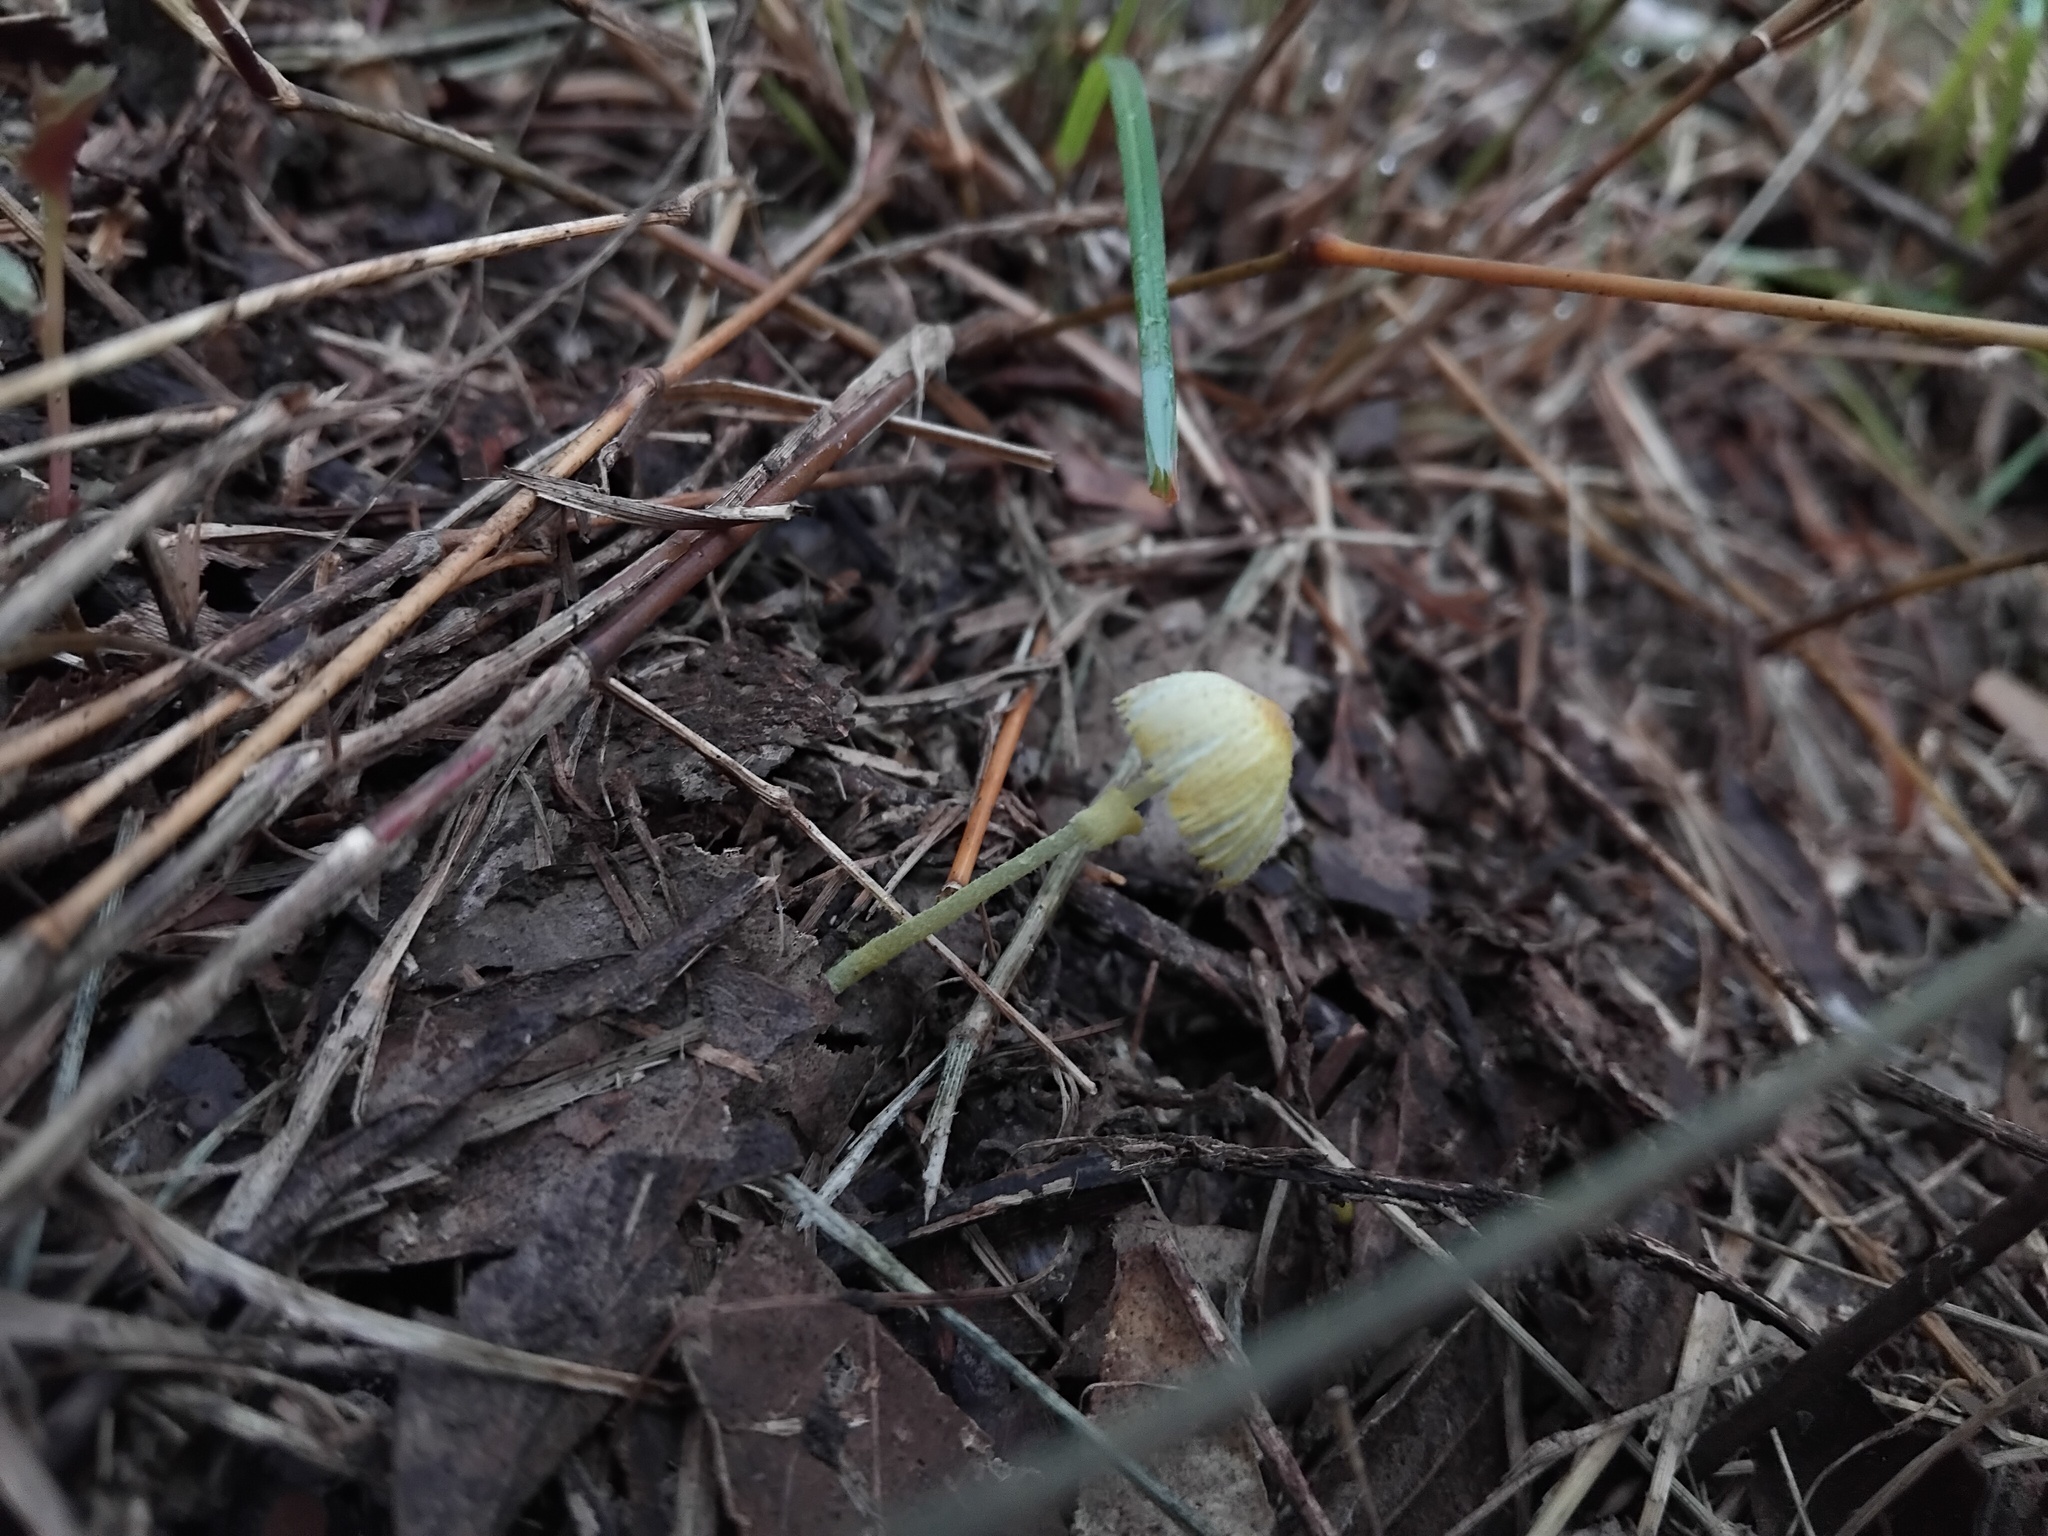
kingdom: Fungi
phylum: Basidiomycota
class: Agaricomycetes
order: Agaricales
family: Agaricaceae
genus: Leucocoprinus
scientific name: Leucocoprinus fragilissimus
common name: Fragile dapperling
